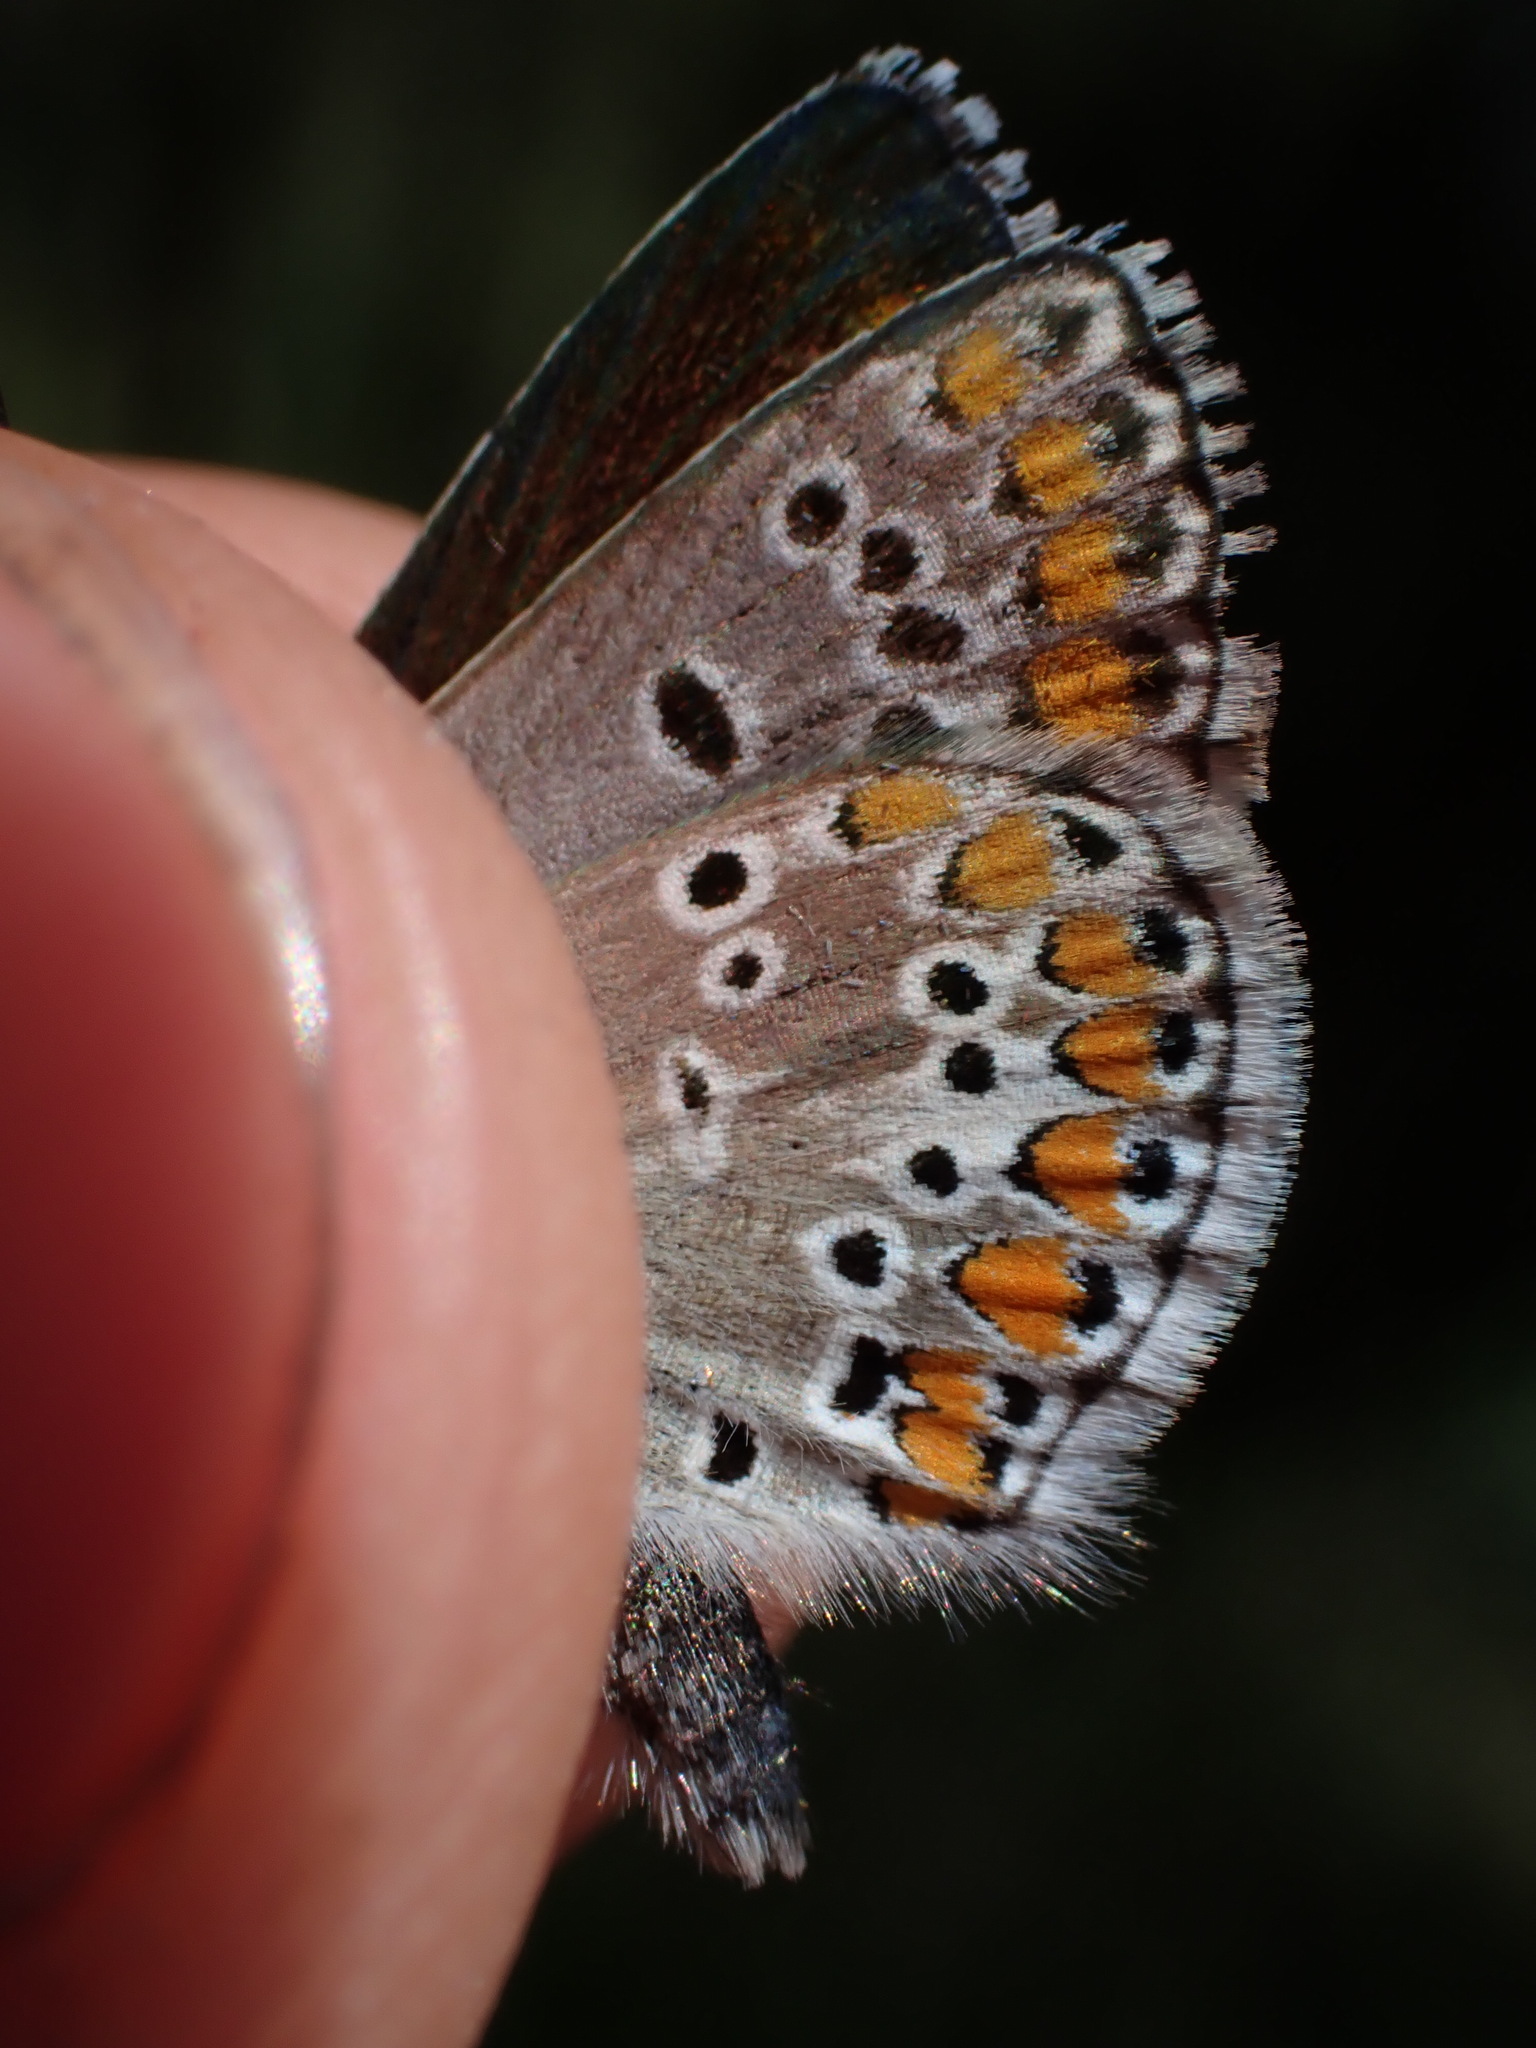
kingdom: Animalia
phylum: Arthropoda
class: Insecta
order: Lepidoptera
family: Lycaenidae
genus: Aricia
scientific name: Aricia agestis
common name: Brown argus
